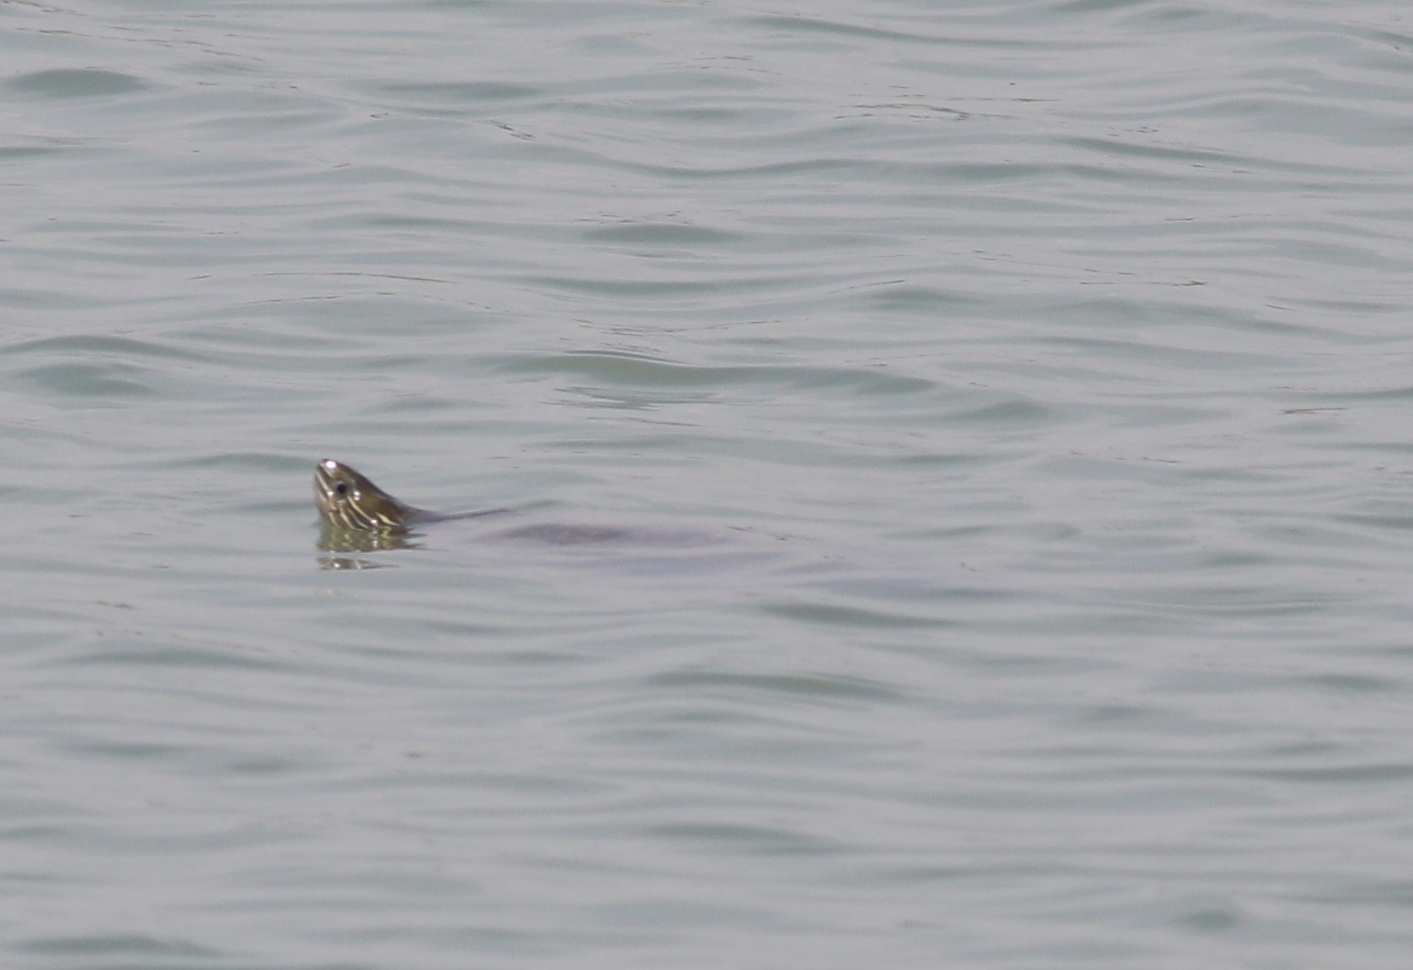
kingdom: Animalia
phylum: Chordata
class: Testudines
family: Geoemydidae
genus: Mauremys
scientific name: Mauremys caspica
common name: Caspian turtle
